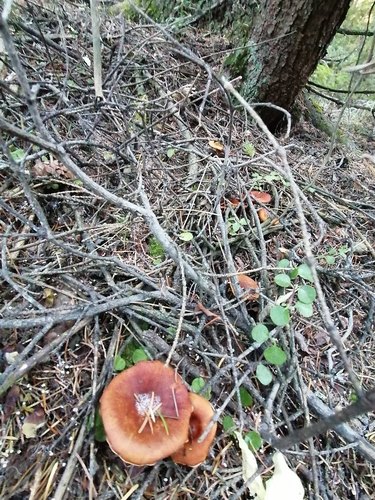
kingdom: Fungi
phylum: Basidiomycota
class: Agaricomycetes
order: Agaricales
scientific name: Agaricales
